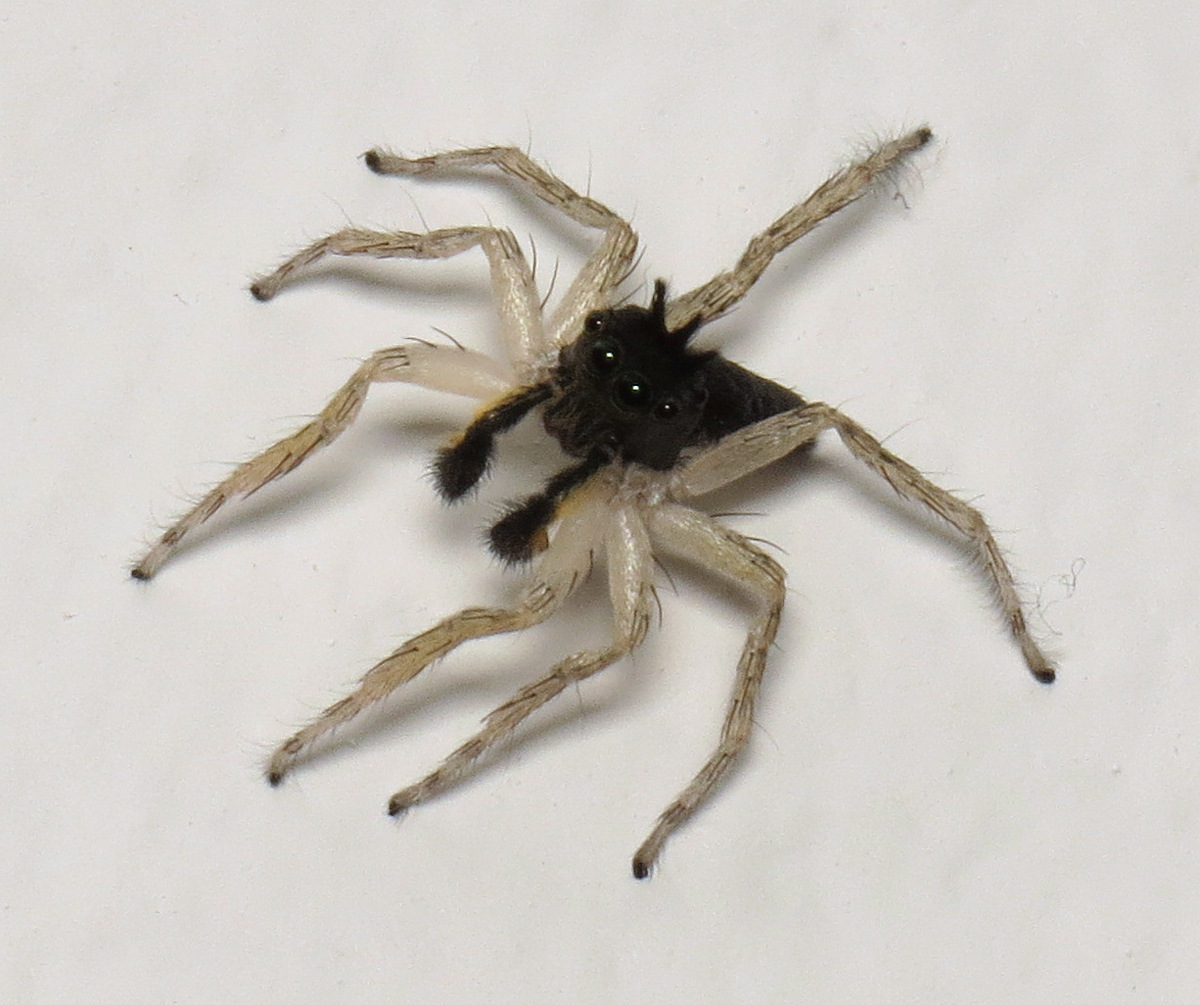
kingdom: Animalia
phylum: Arthropoda
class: Arachnida
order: Araneae
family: Salticidae
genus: Maevia
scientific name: Maevia inclemens
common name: Dimorphic jumper
